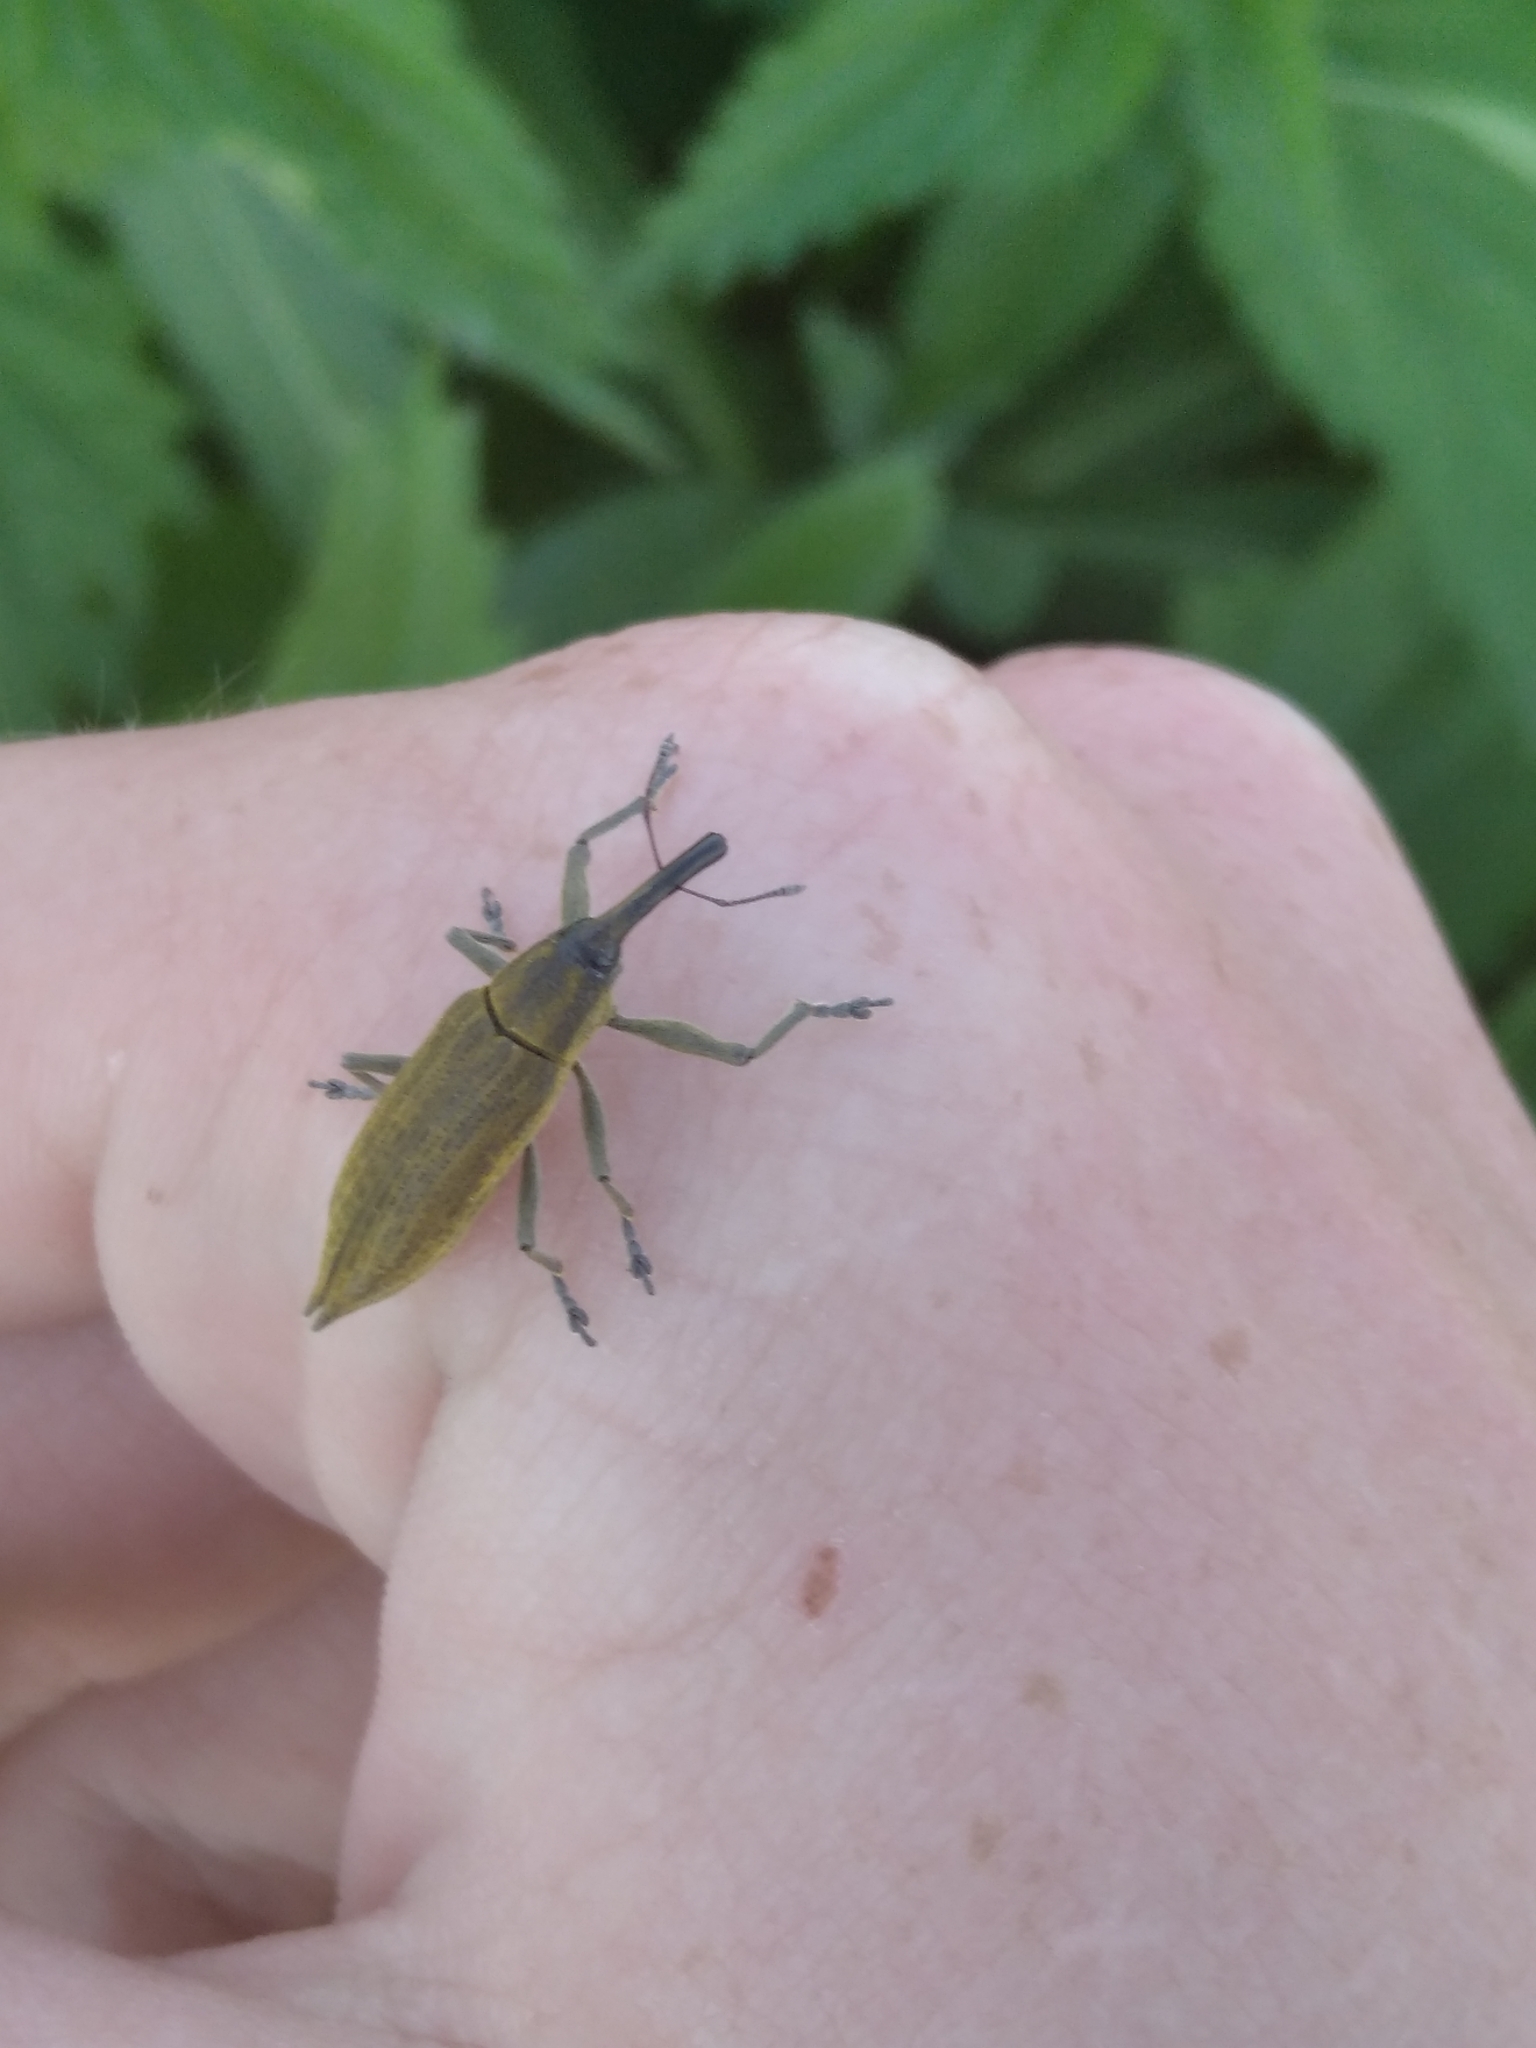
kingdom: Animalia
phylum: Arthropoda
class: Insecta
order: Coleoptera
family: Curculionidae
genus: Lixus
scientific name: Lixus iridis
